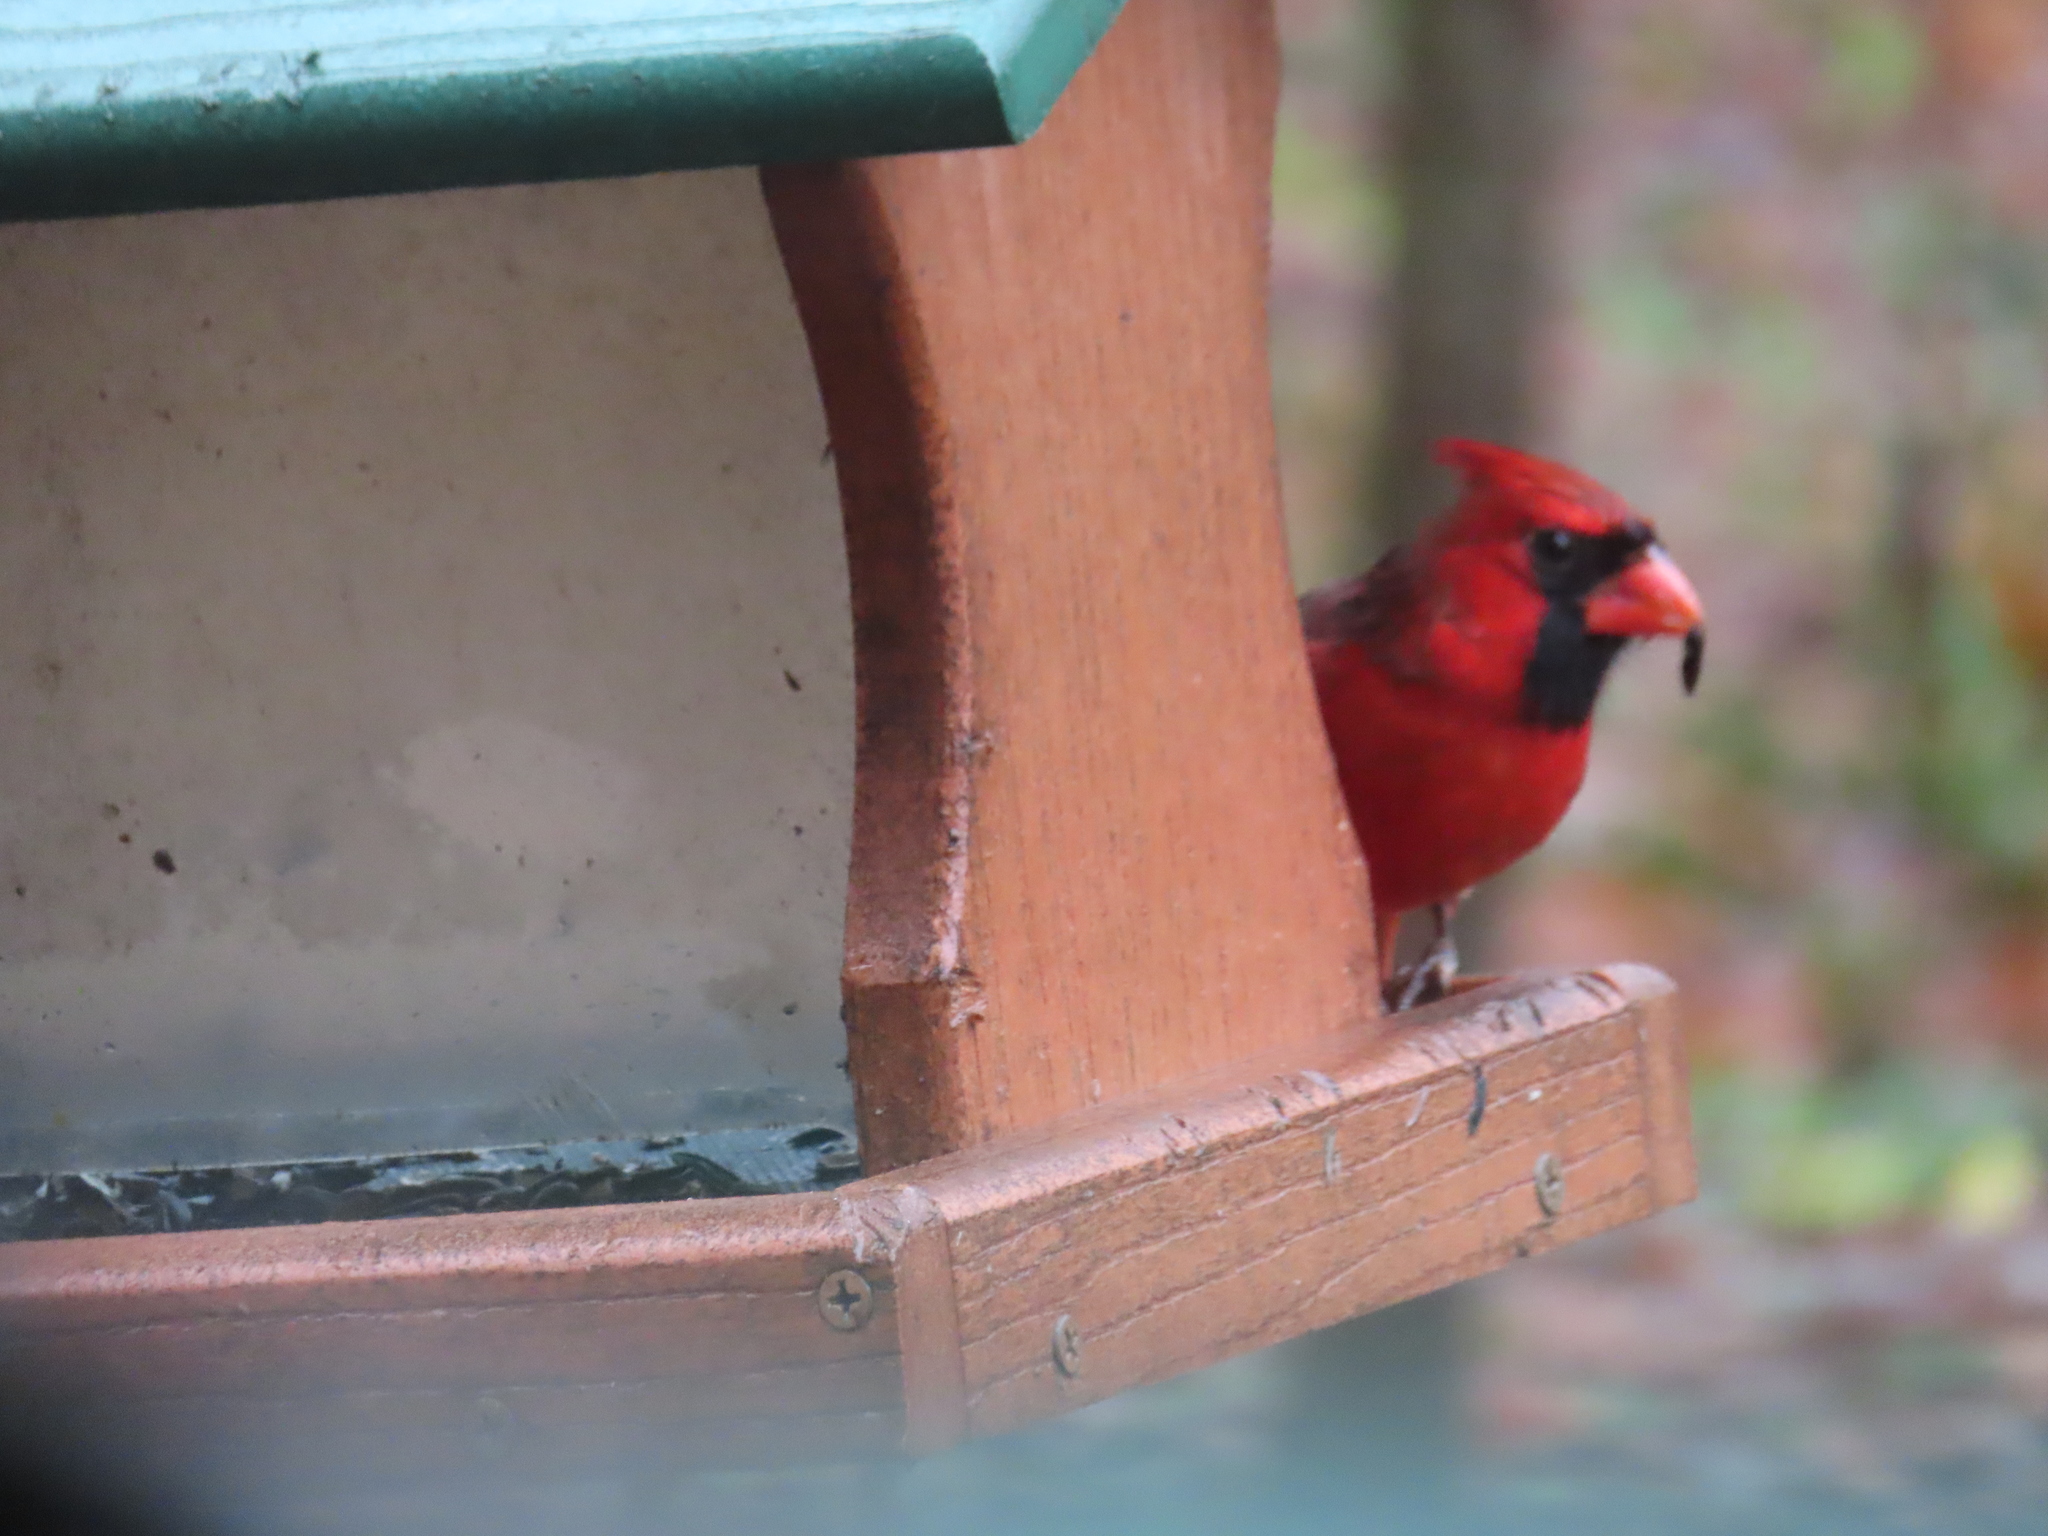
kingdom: Animalia
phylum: Chordata
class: Aves
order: Passeriformes
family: Cardinalidae
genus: Cardinalis
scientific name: Cardinalis cardinalis
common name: Northern cardinal
